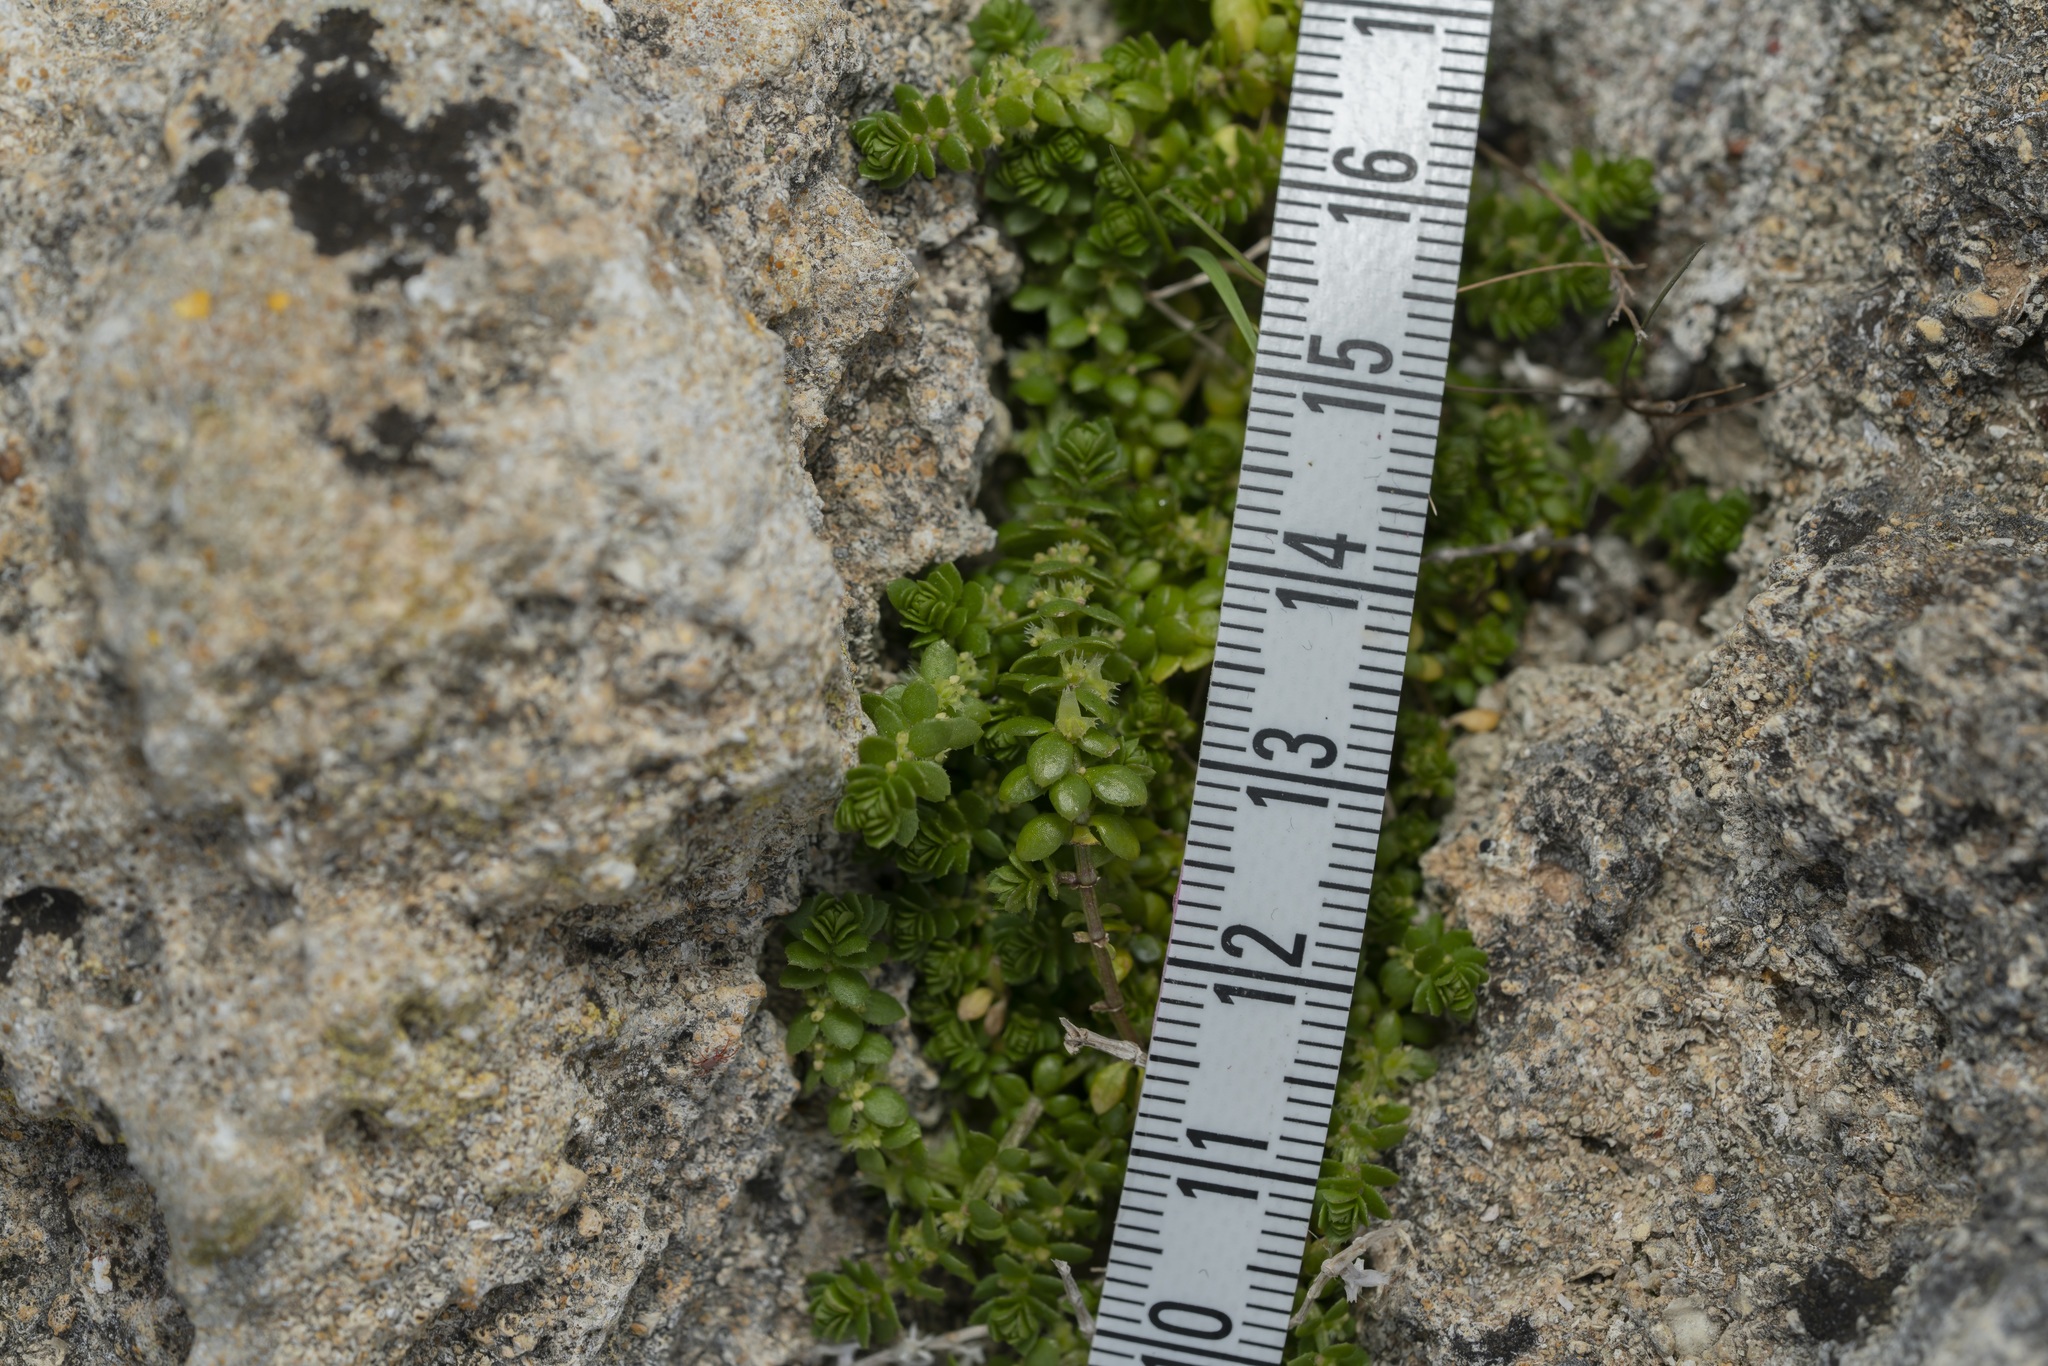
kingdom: Plantae
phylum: Tracheophyta
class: Magnoliopsida
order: Gentianales
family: Rubiaceae
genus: Valantia
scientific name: Valantia muralis
